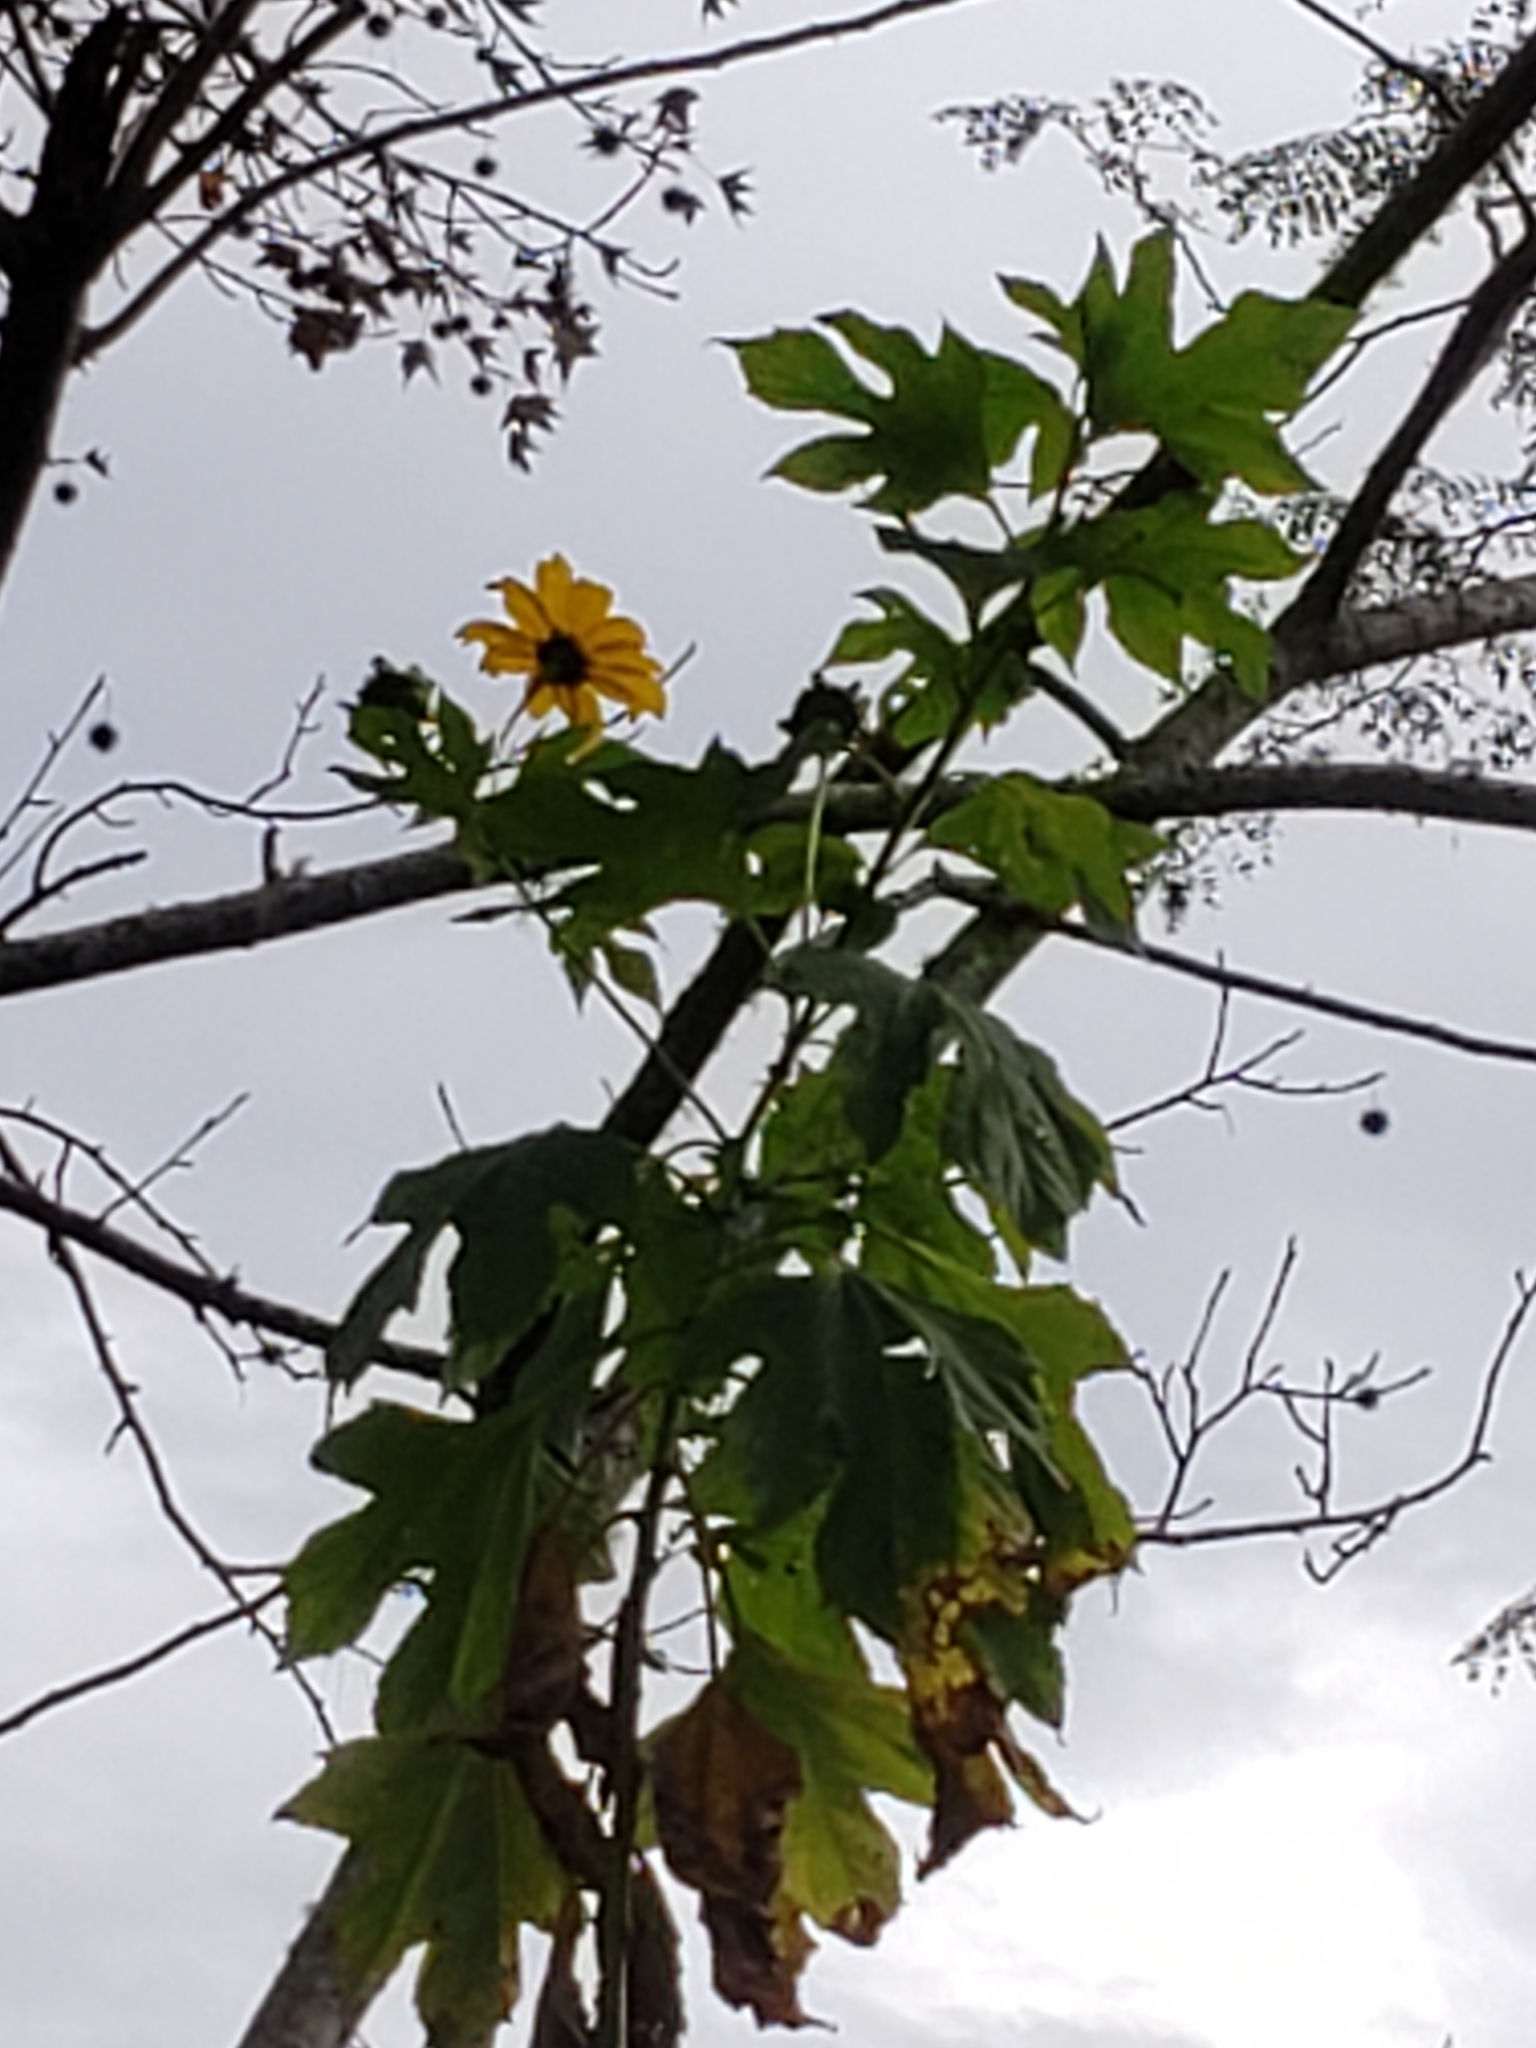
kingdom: Plantae
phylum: Tracheophyta
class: Magnoliopsida
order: Asterales
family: Asteraceae
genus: Tithonia
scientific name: Tithonia diversifolia
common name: Tree marigold
